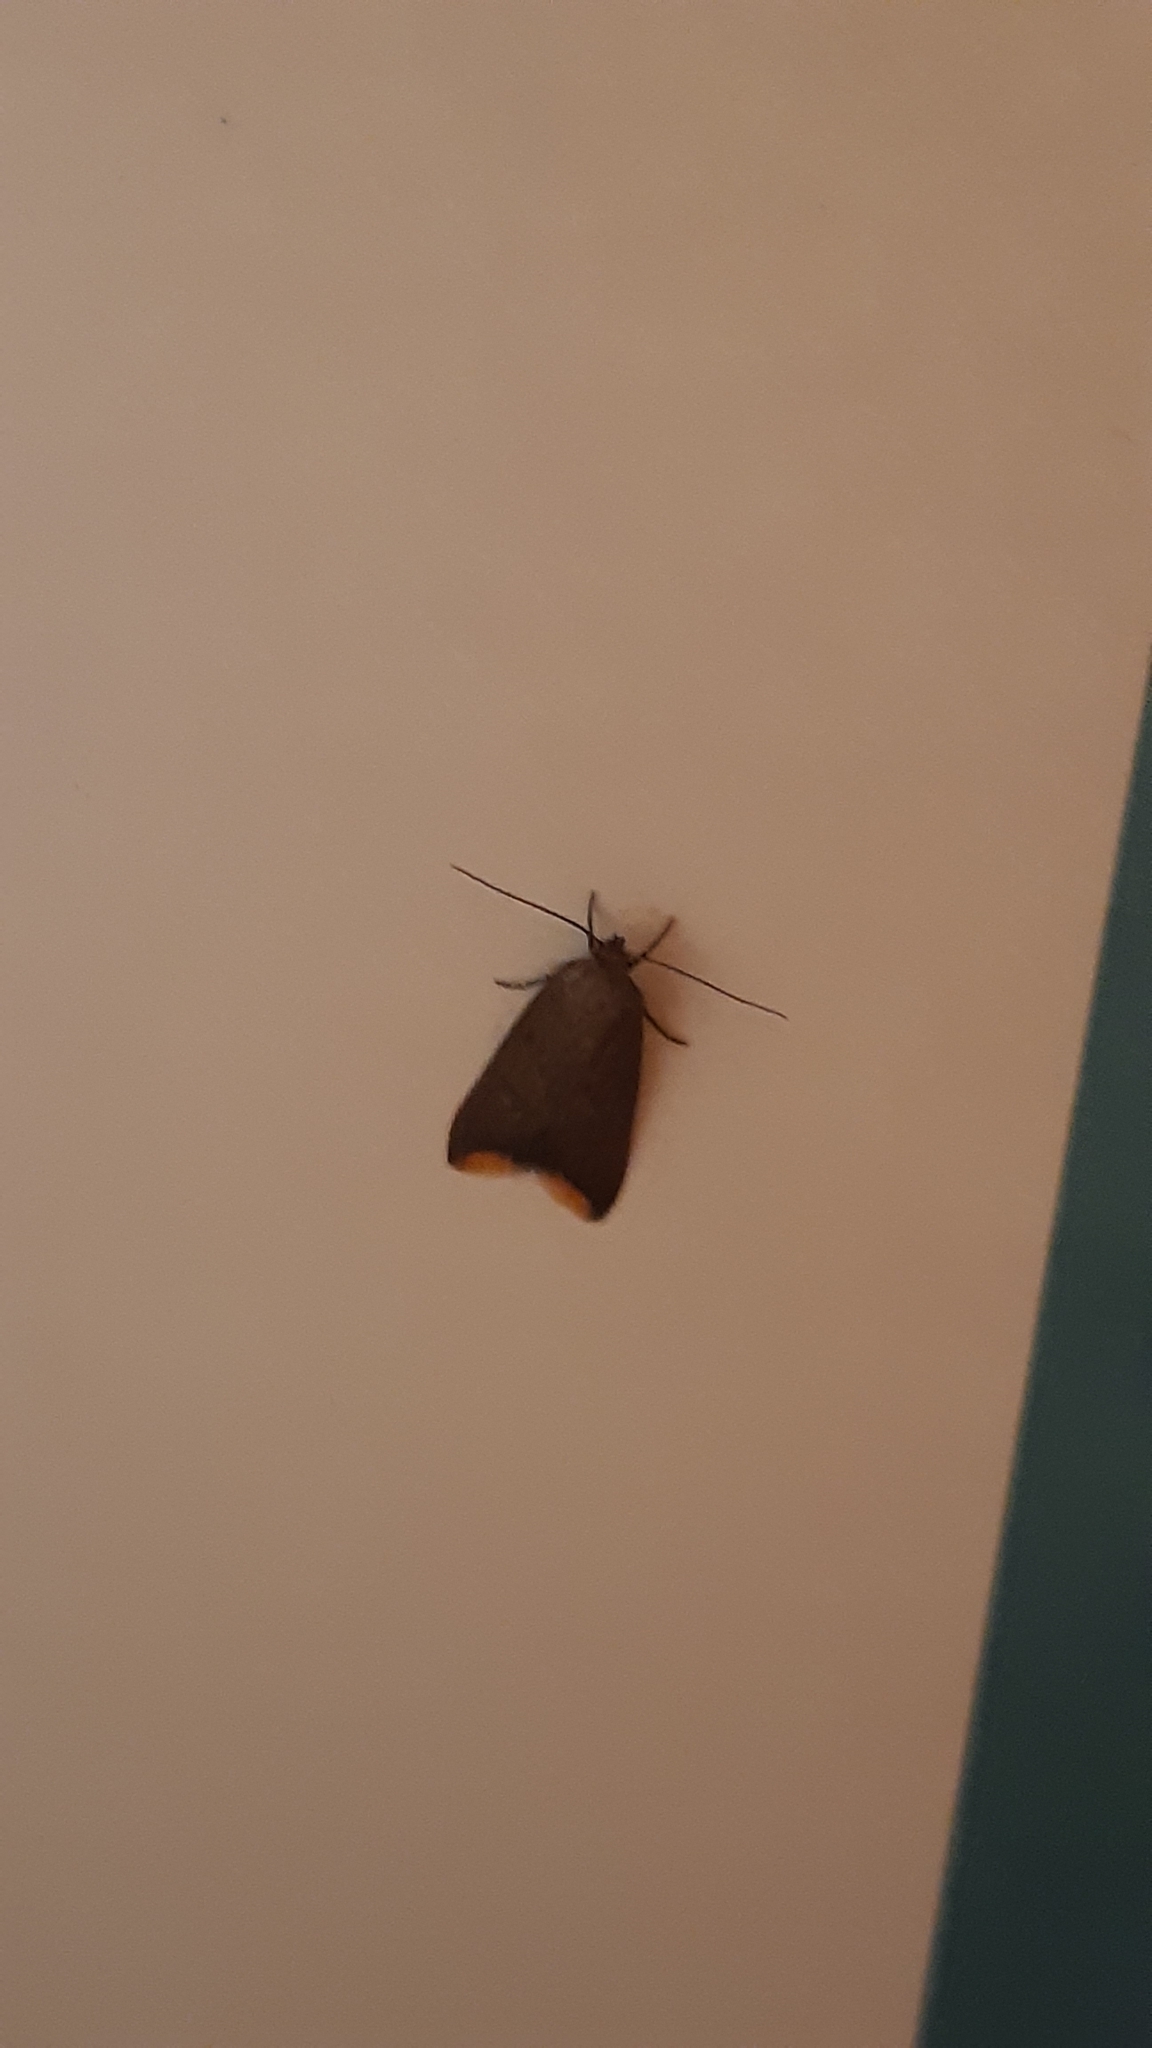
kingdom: Animalia
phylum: Arthropoda
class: Insecta
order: Lepidoptera
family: Oecophoridae
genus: Tachystola
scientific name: Tachystola acroxantha
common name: Ruddy streak
